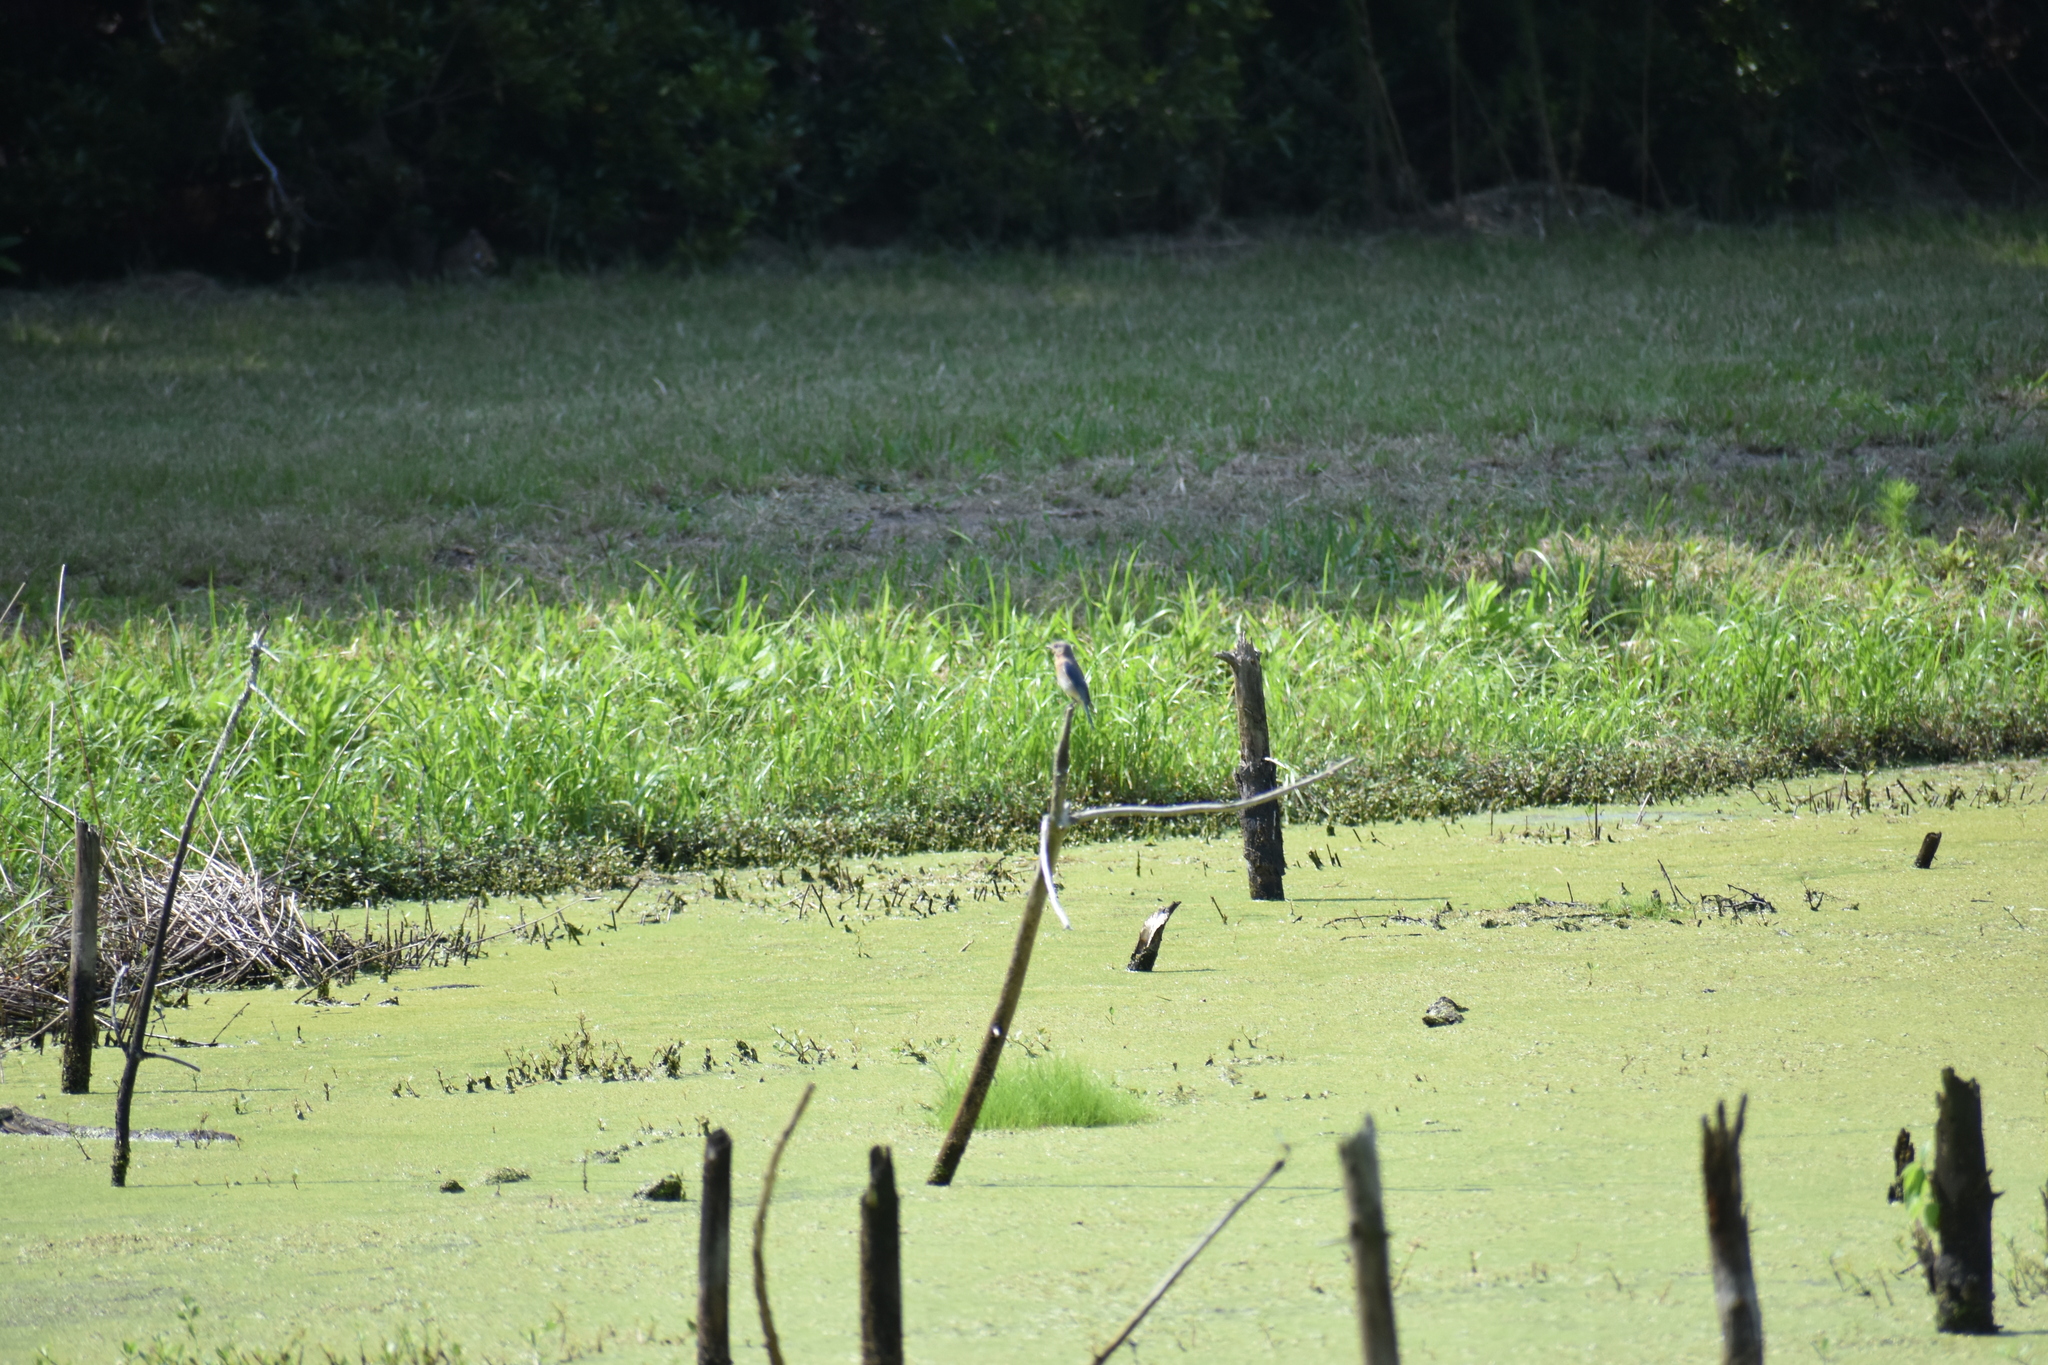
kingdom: Animalia
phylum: Chordata
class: Aves
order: Passeriformes
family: Turdidae
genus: Sialia
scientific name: Sialia sialis
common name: Eastern bluebird
